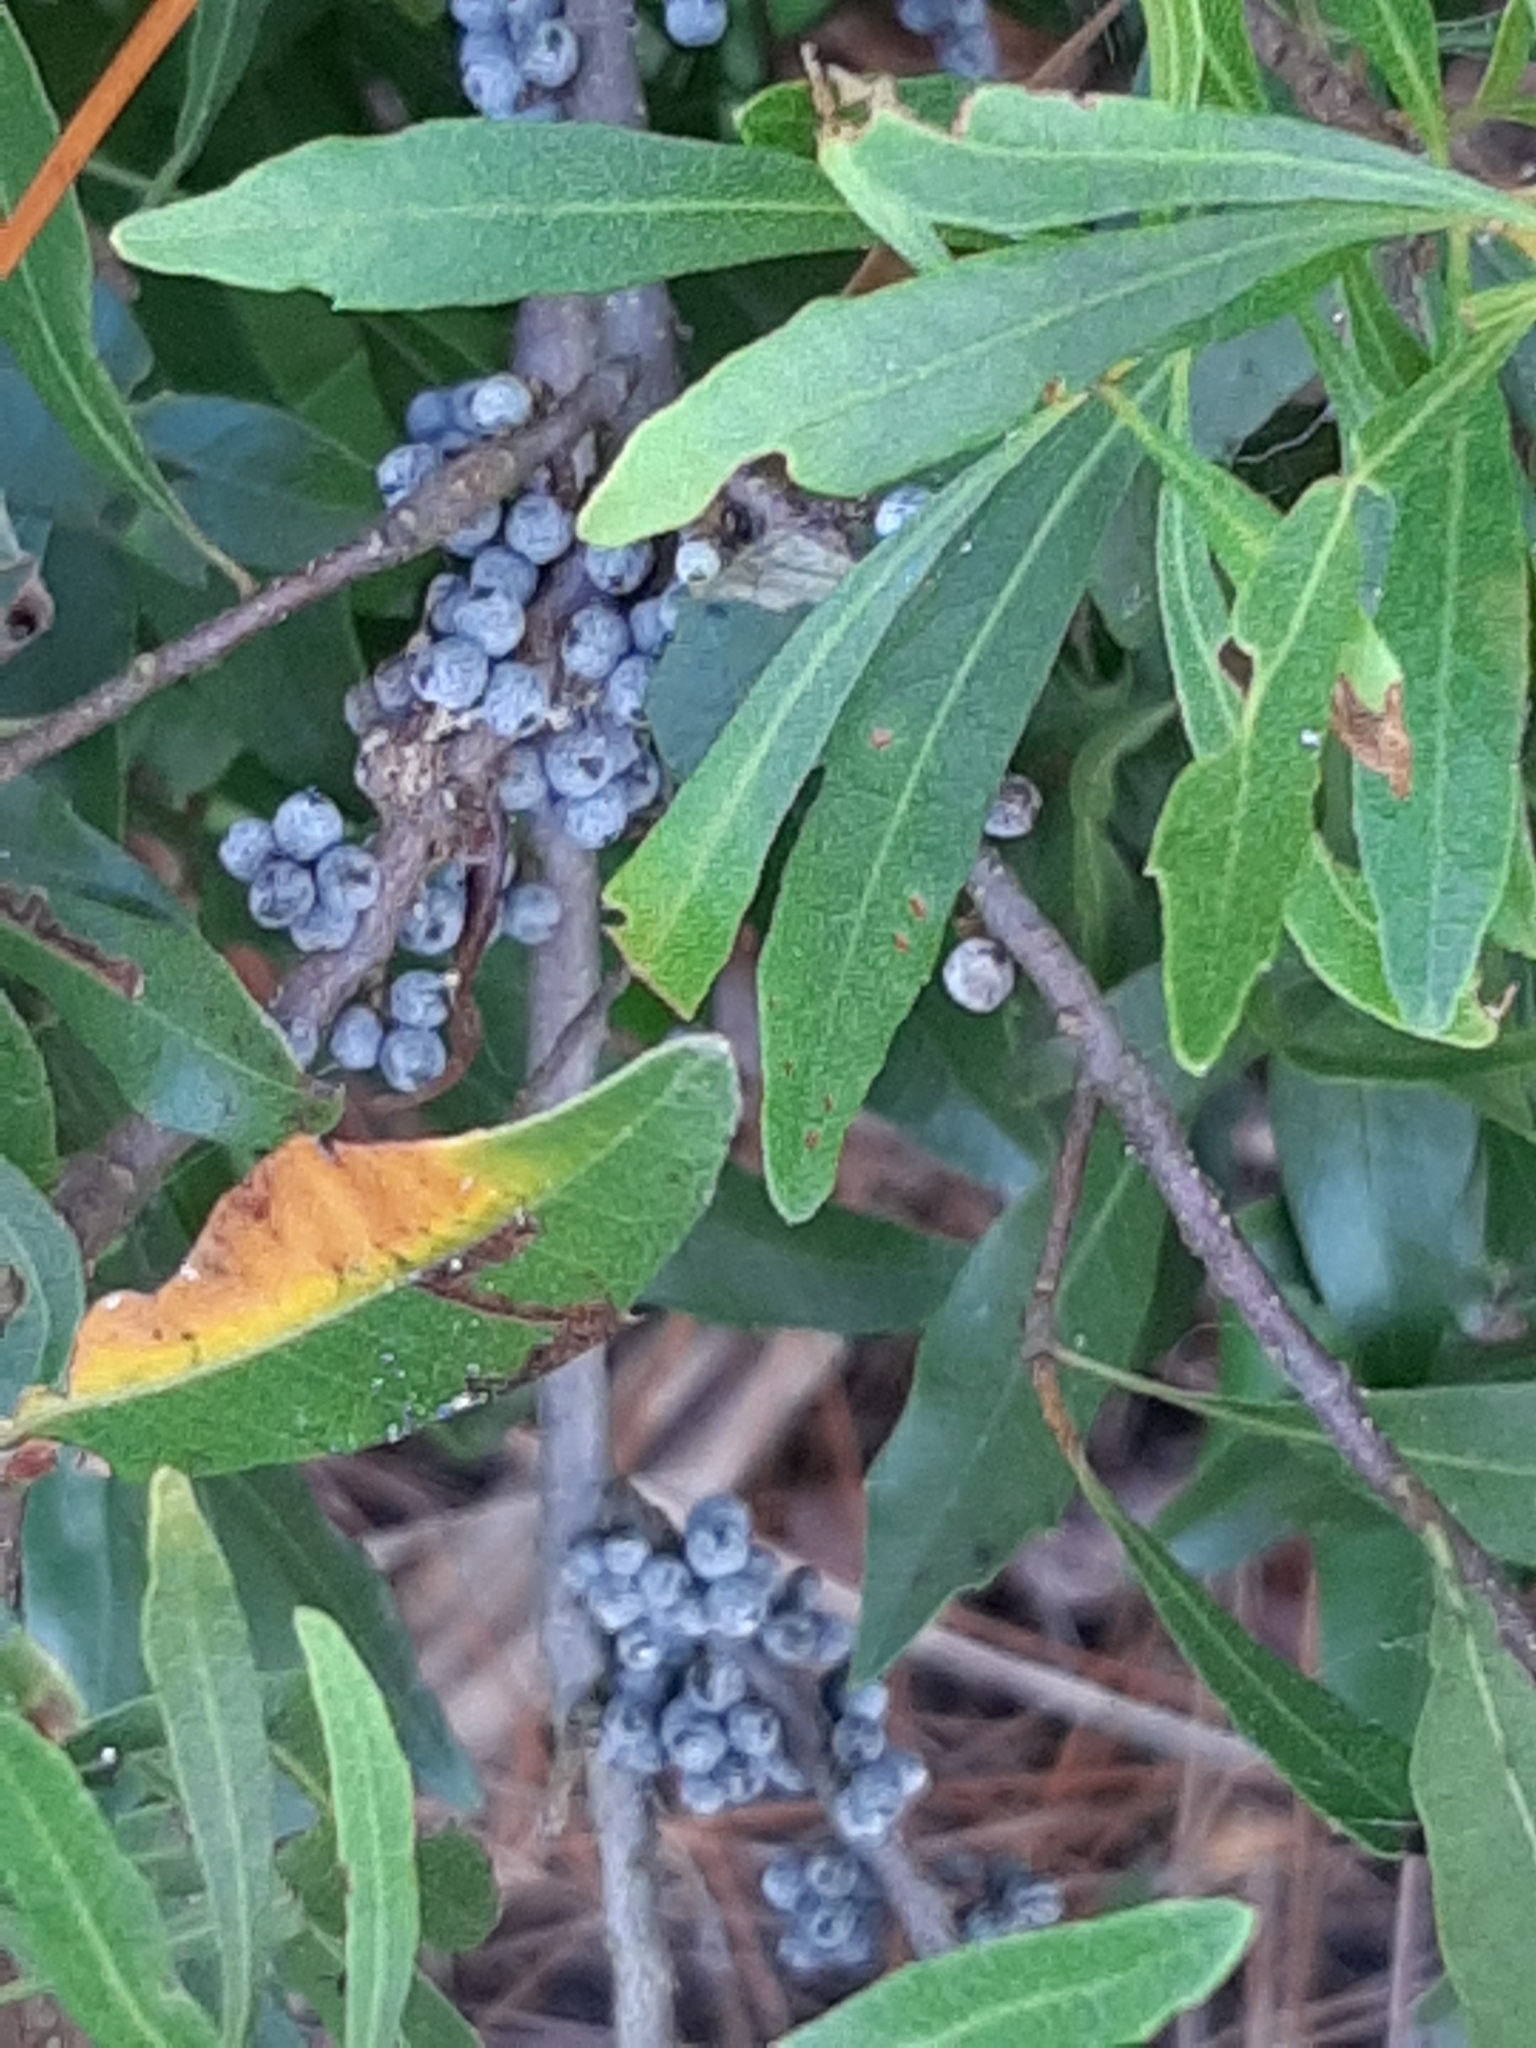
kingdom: Plantae
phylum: Tracheophyta
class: Magnoliopsida
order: Fagales
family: Myricaceae
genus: Morella
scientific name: Morella cerifera
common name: Wax myrtle
